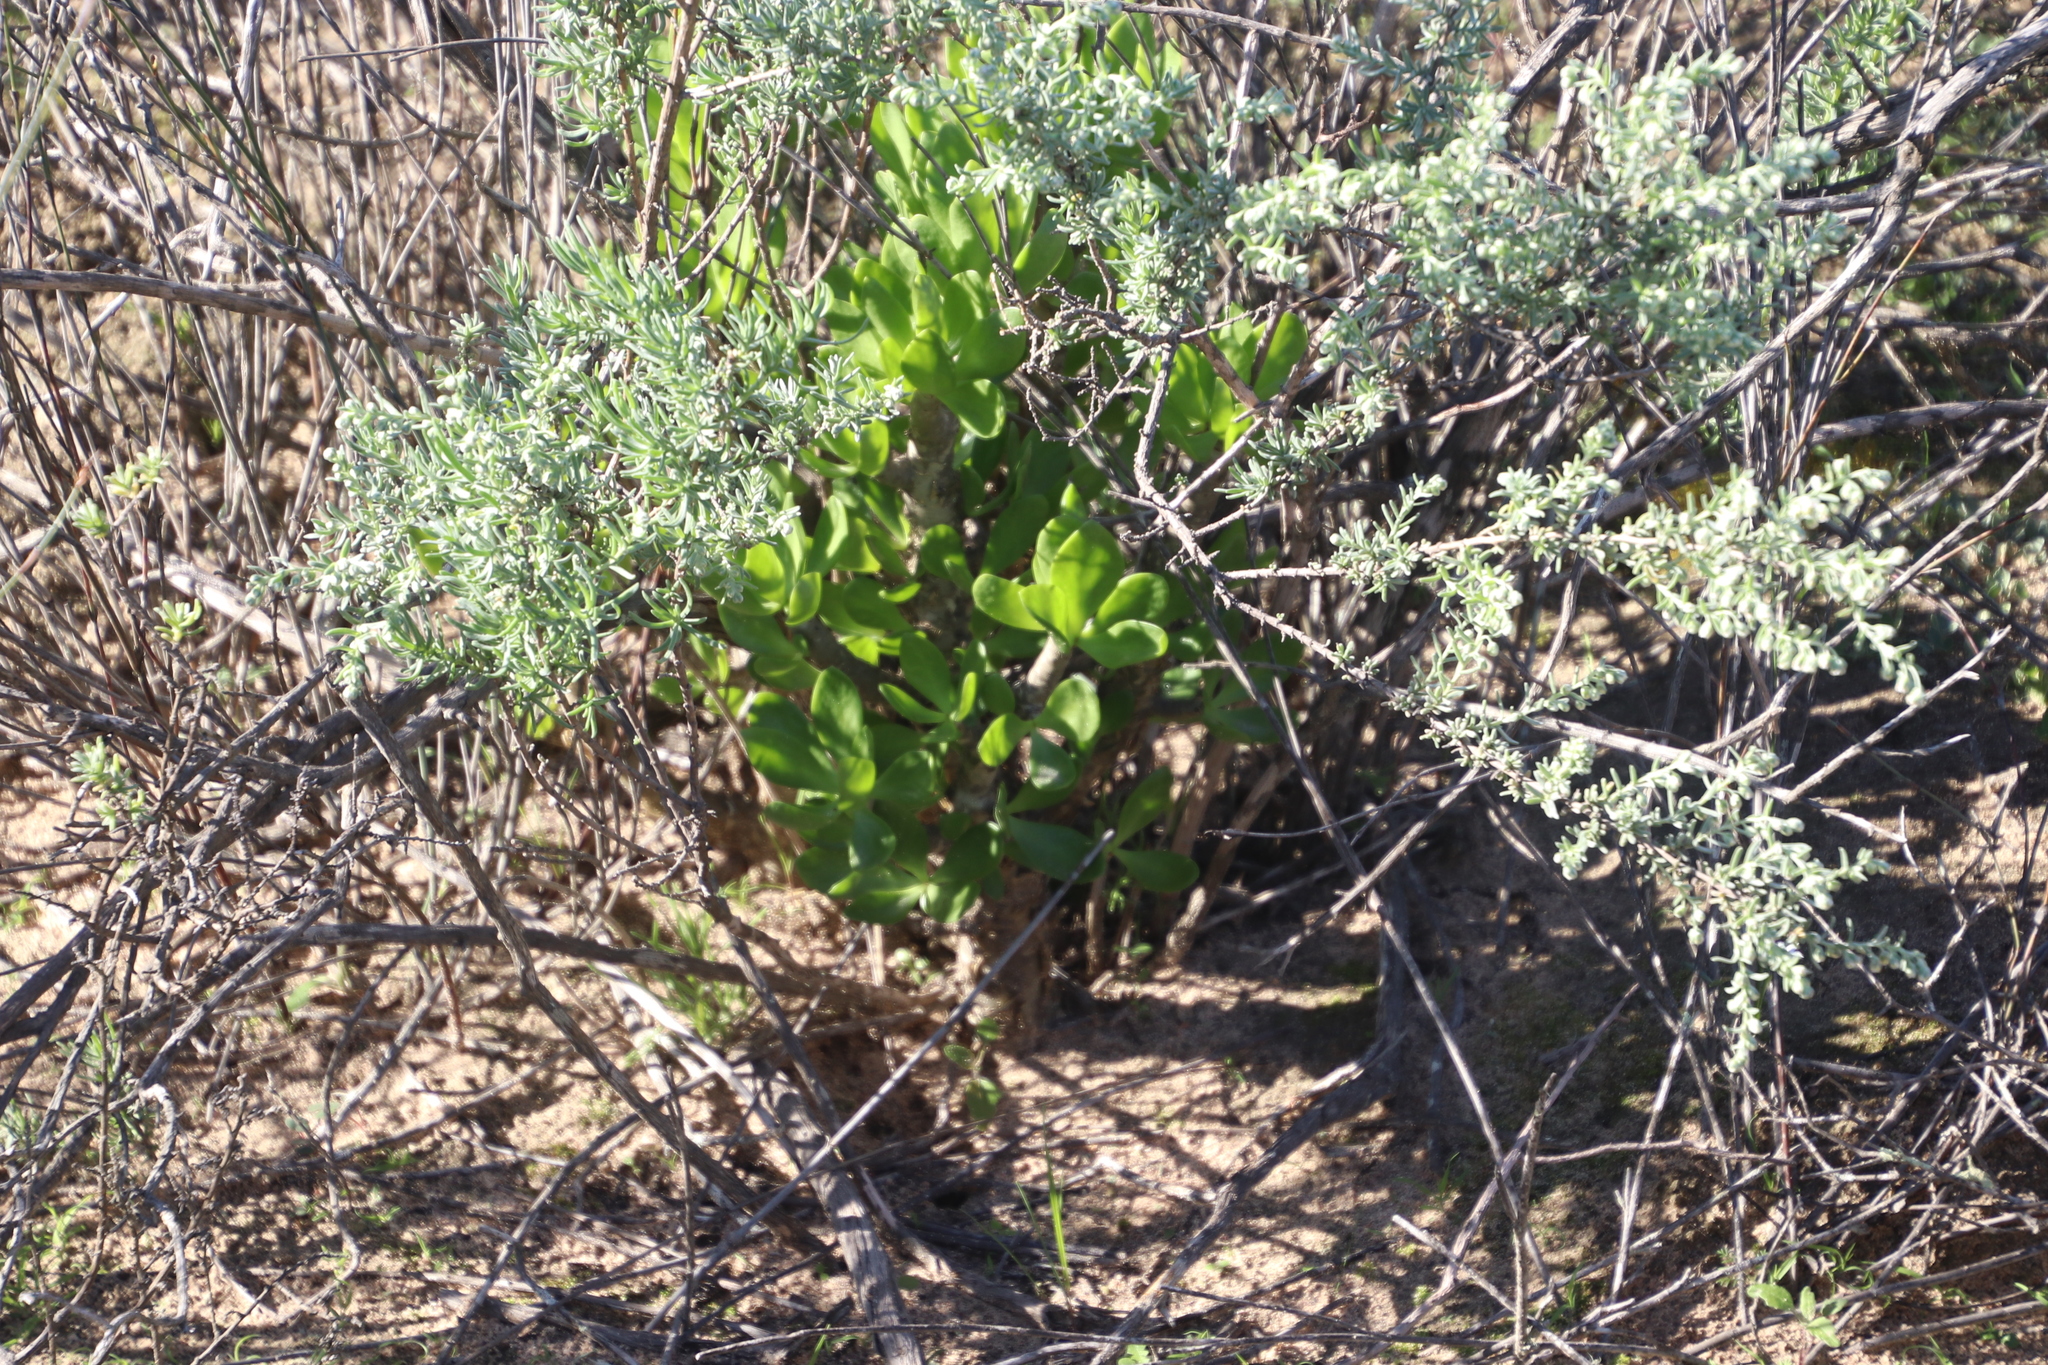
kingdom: Plantae
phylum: Tracheophyta
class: Magnoliopsida
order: Saxifragales
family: Crassulaceae
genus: Tylecodon
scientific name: Tylecodon paniculatus
